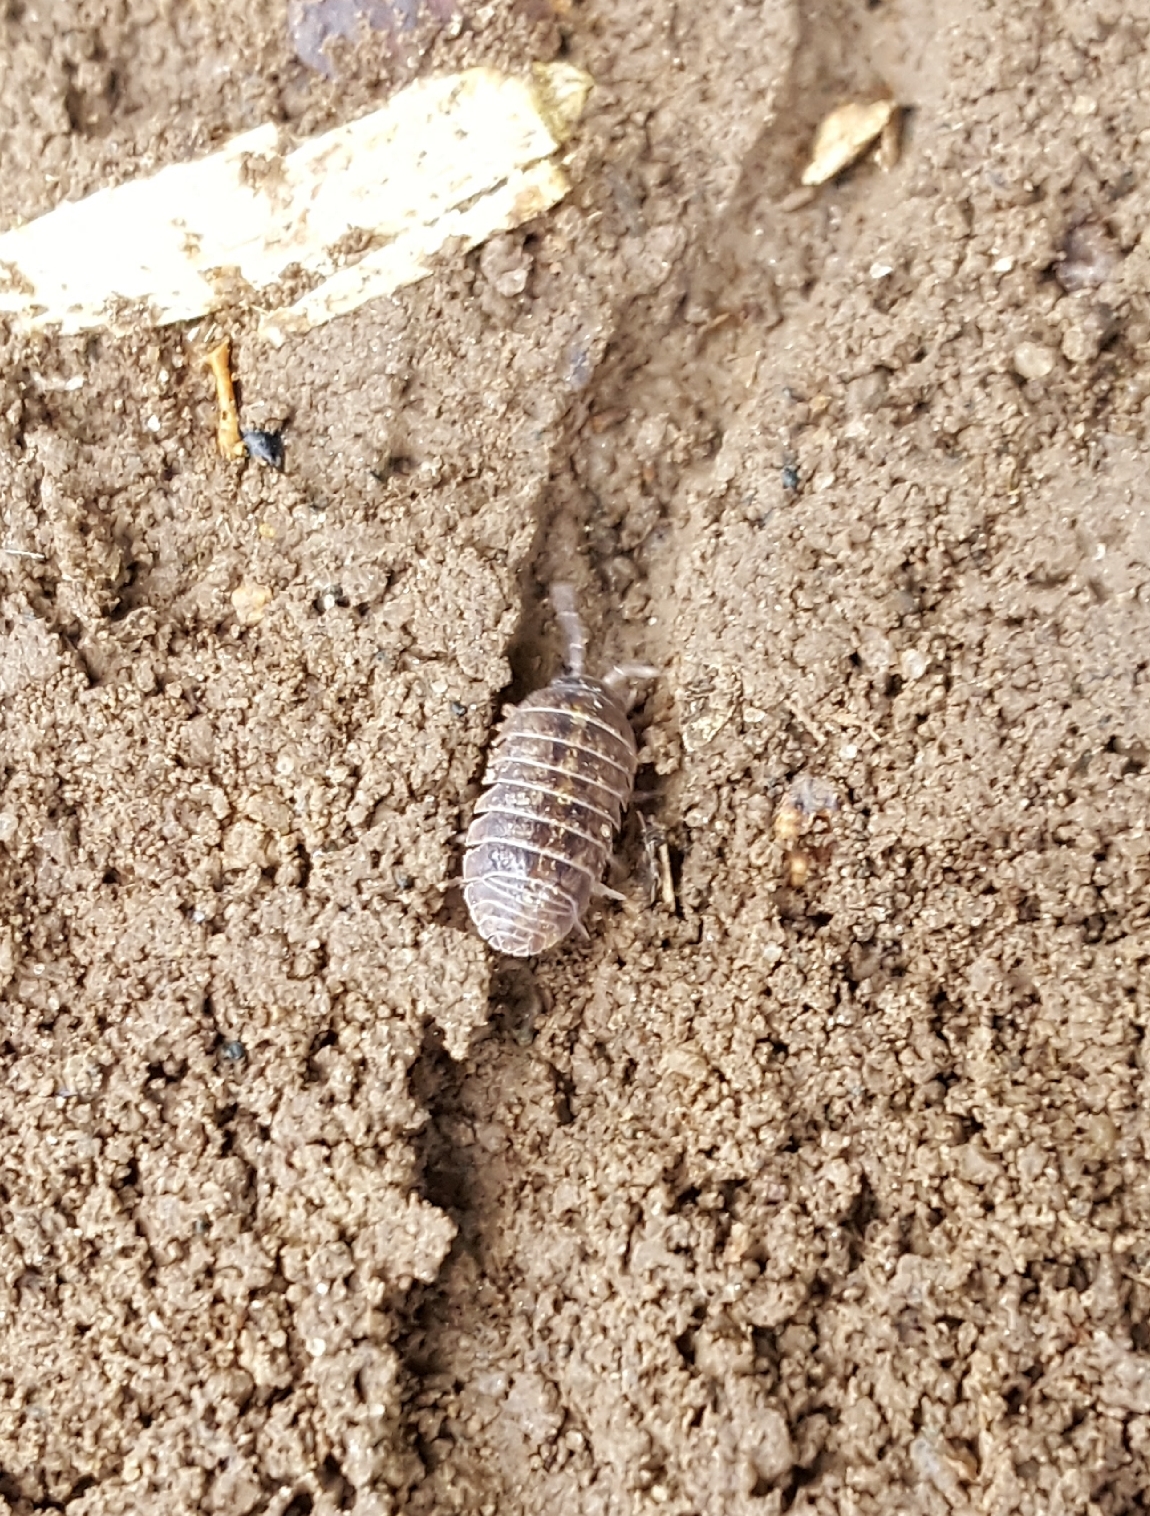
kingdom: Animalia
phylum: Arthropoda
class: Malacostraca
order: Isopoda
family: Armadillidiidae
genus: Armadillidium
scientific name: Armadillidium vulgare
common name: Common pill woodlouse
